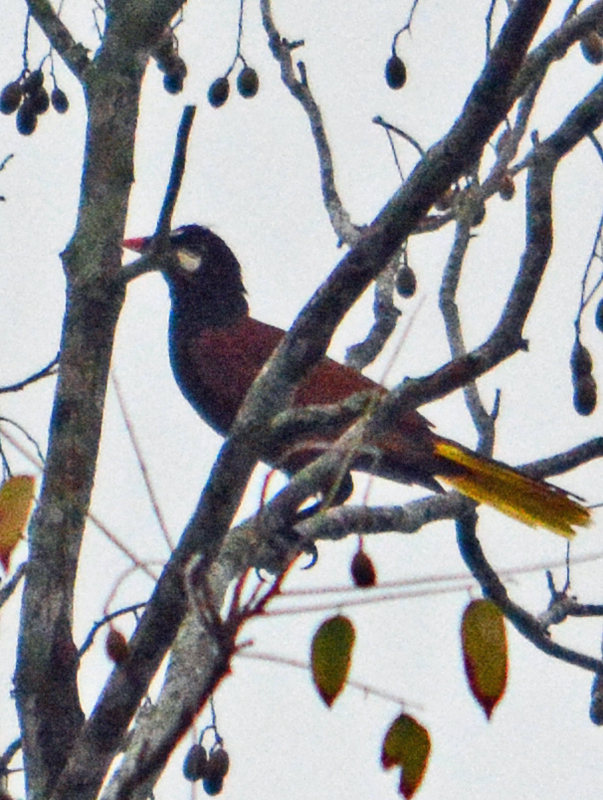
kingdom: Animalia
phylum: Chordata
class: Aves
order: Passeriformes
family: Icteridae
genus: Psarocolius
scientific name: Psarocolius montezuma
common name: Montezuma oropendola
